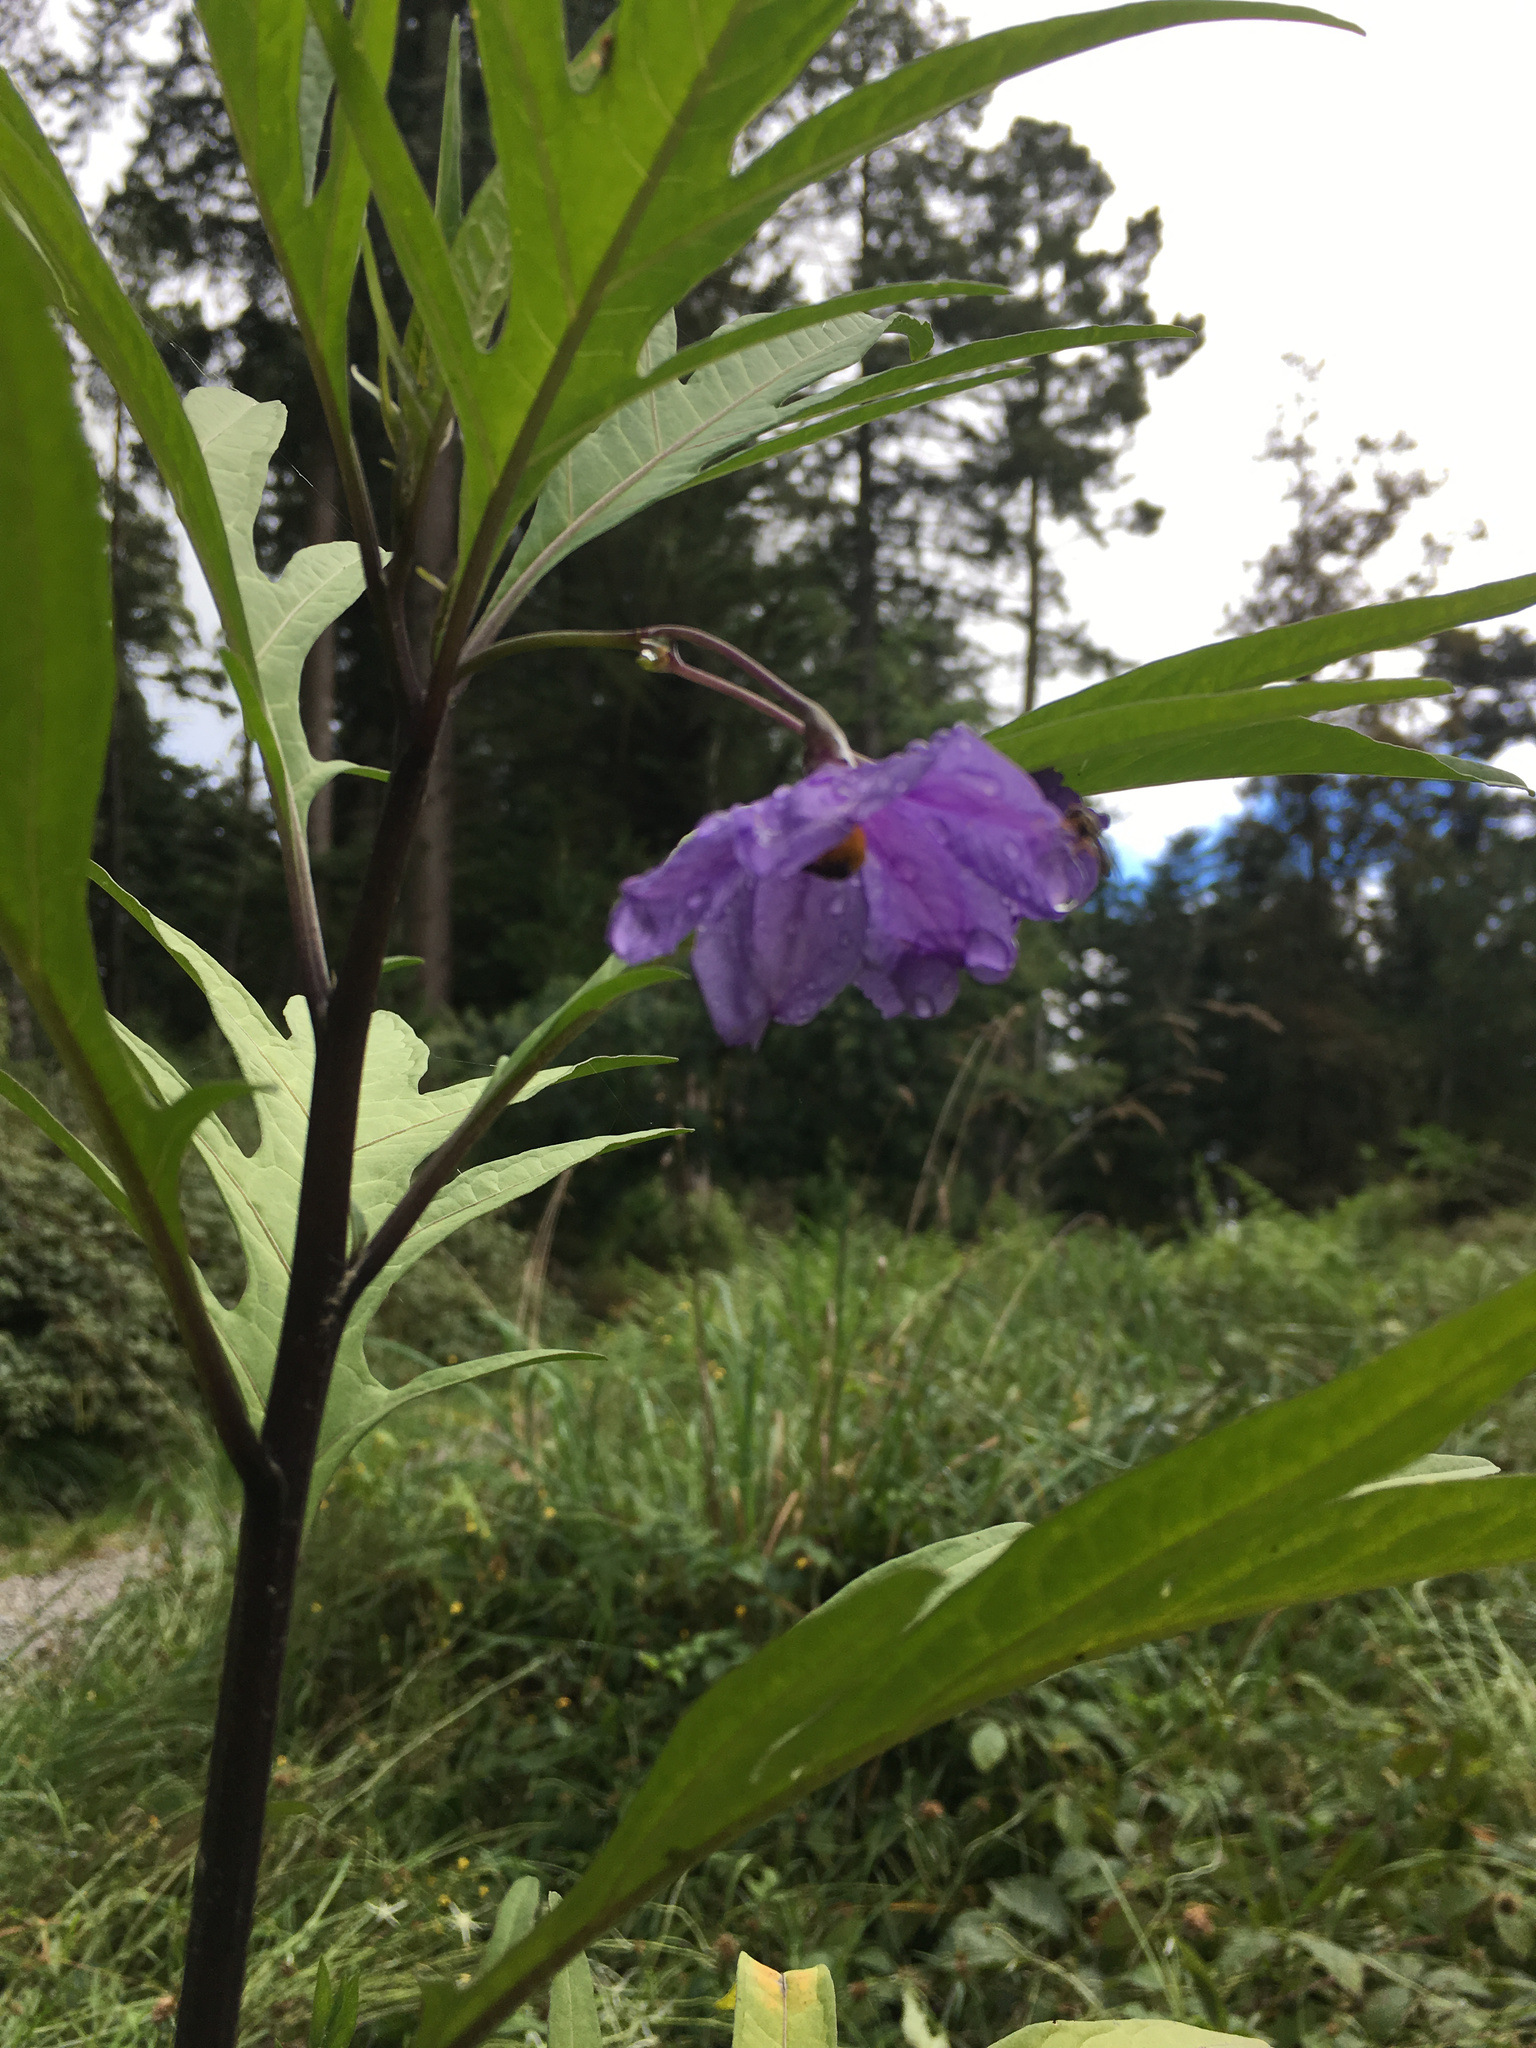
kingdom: Plantae
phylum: Tracheophyta
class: Magnoliopsida
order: Solanales
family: Solanaceae
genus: Solanum
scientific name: Solanum laciniatum
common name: Kangaroo-apple
